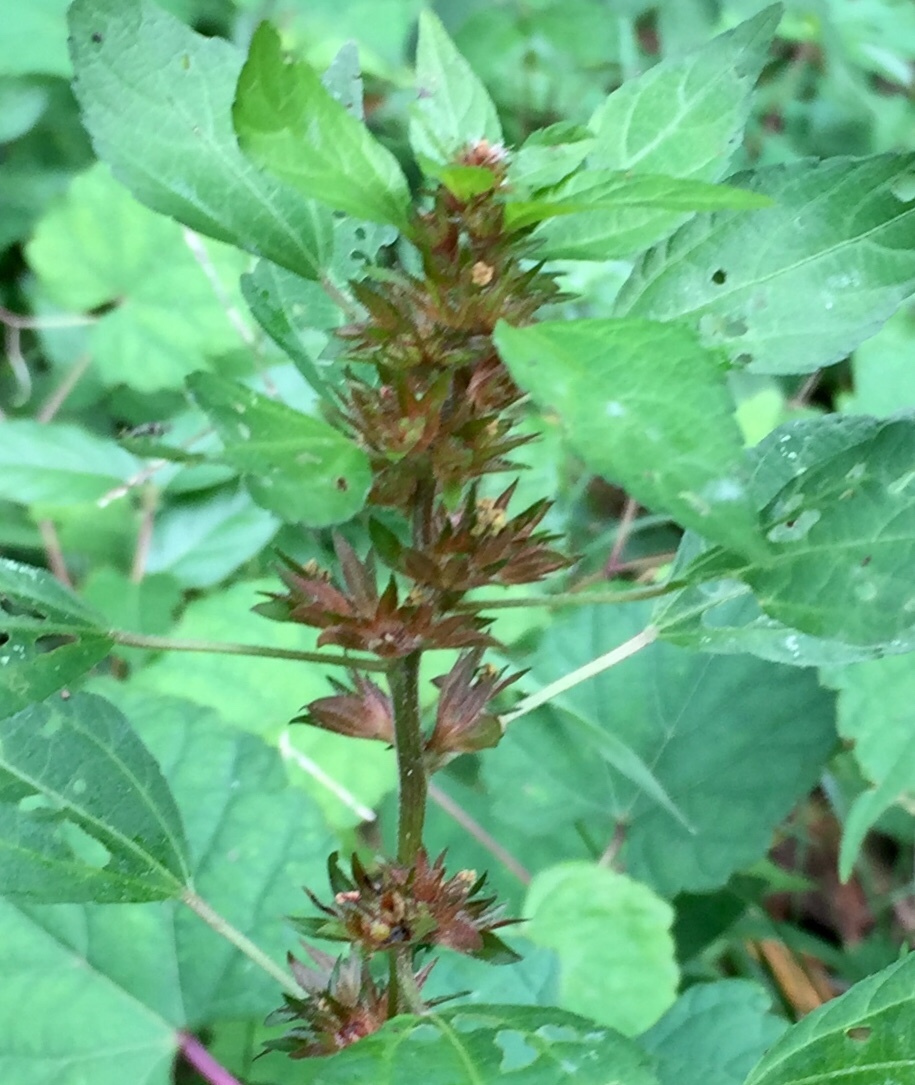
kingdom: Plantae
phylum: Tracheophyta
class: Magnoliopsida
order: Malpighiales
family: Euphorbiaceae
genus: Acalypha
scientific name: Acalypha rhomboidea
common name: Rhombic copperleaf
